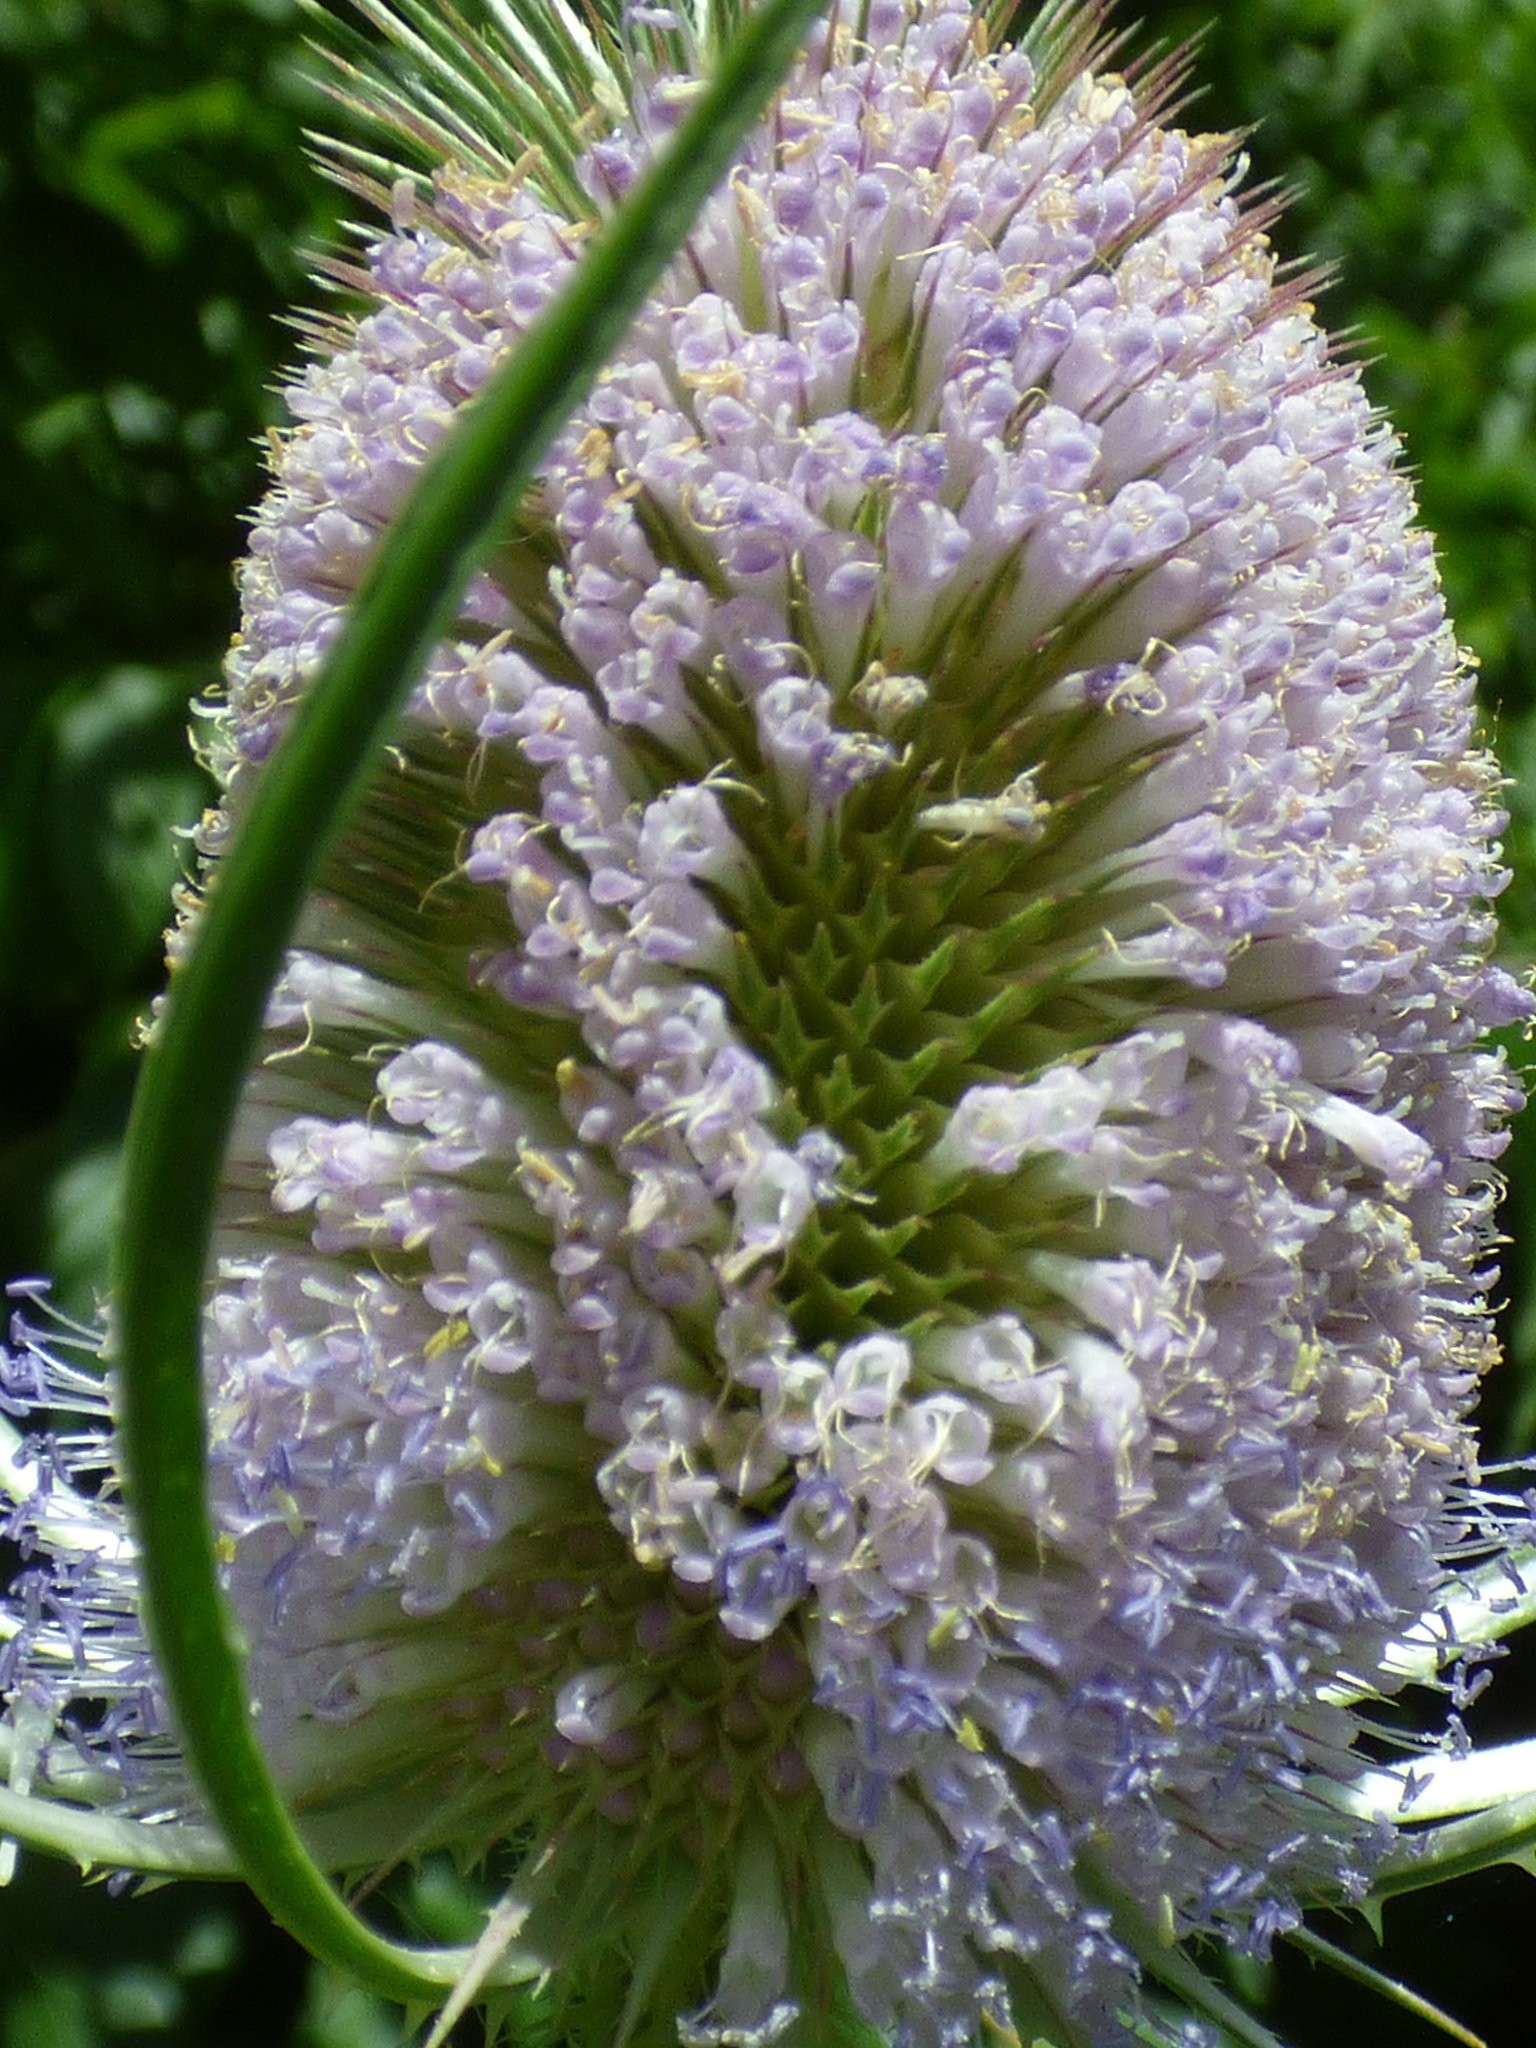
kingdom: Plantae
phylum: Tracheophyta
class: Magnoliopsida
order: Dipsacales
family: Caprifoliaceae
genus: Dipsacus
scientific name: Dipsacus fullonum
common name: Teasel
